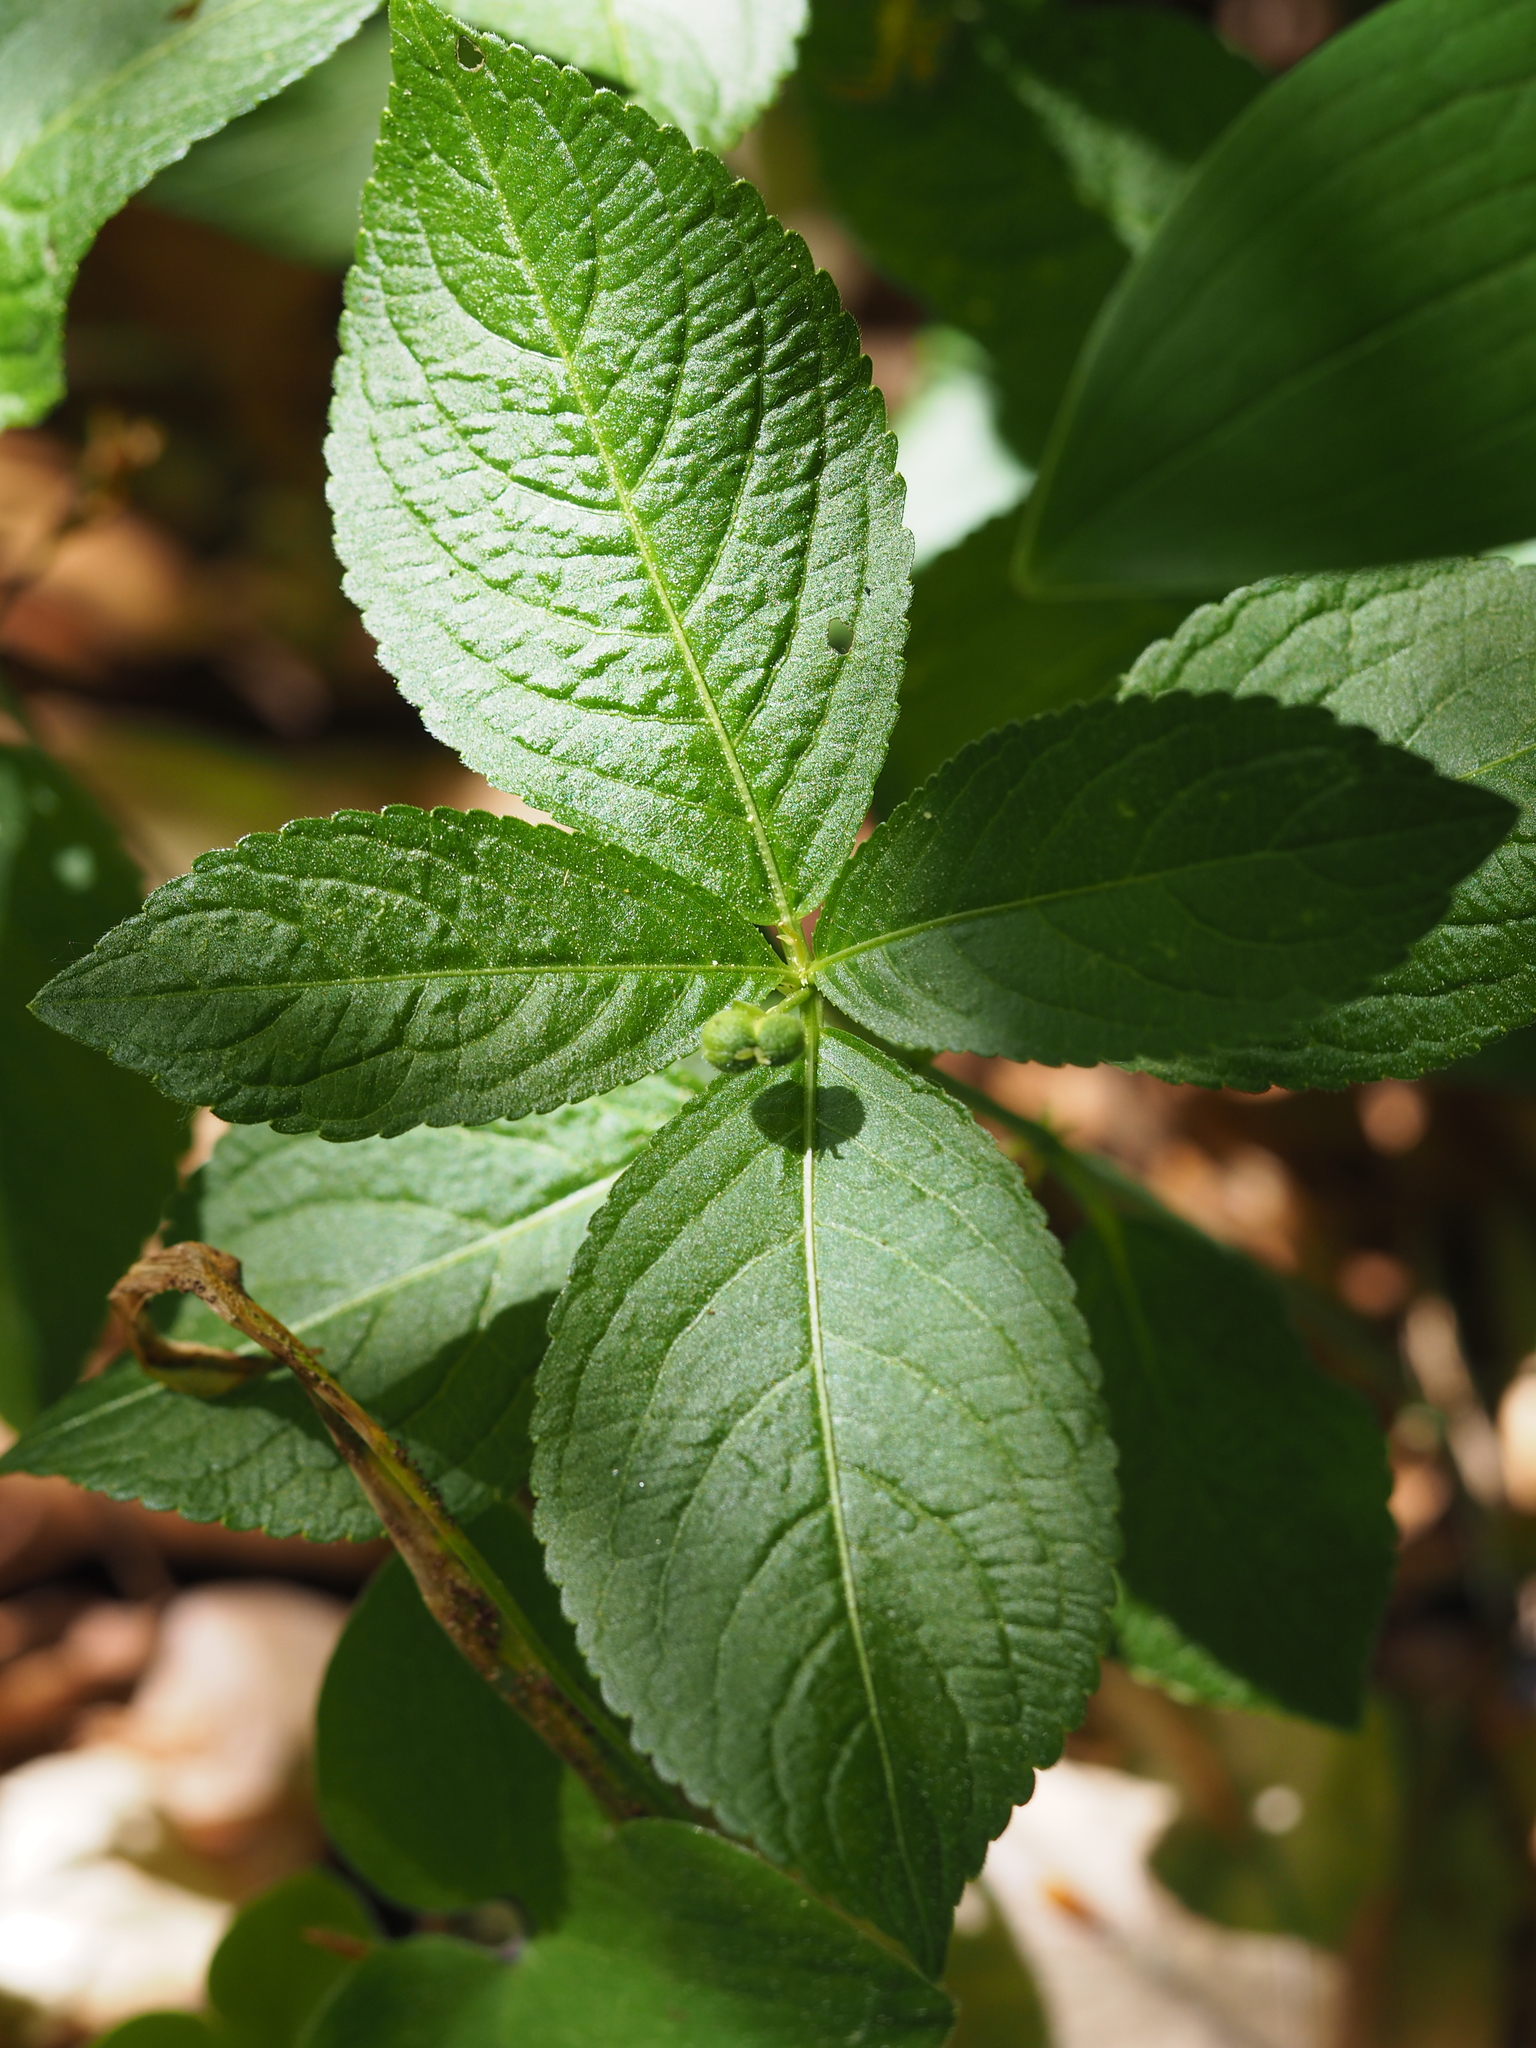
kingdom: Plantae
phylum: Tracheophyta
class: Magnoliopsida
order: Malpighiales
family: Euphorbiaceae
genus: Mercurialis
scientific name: Mercurialis perennis
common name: Dog mercury
